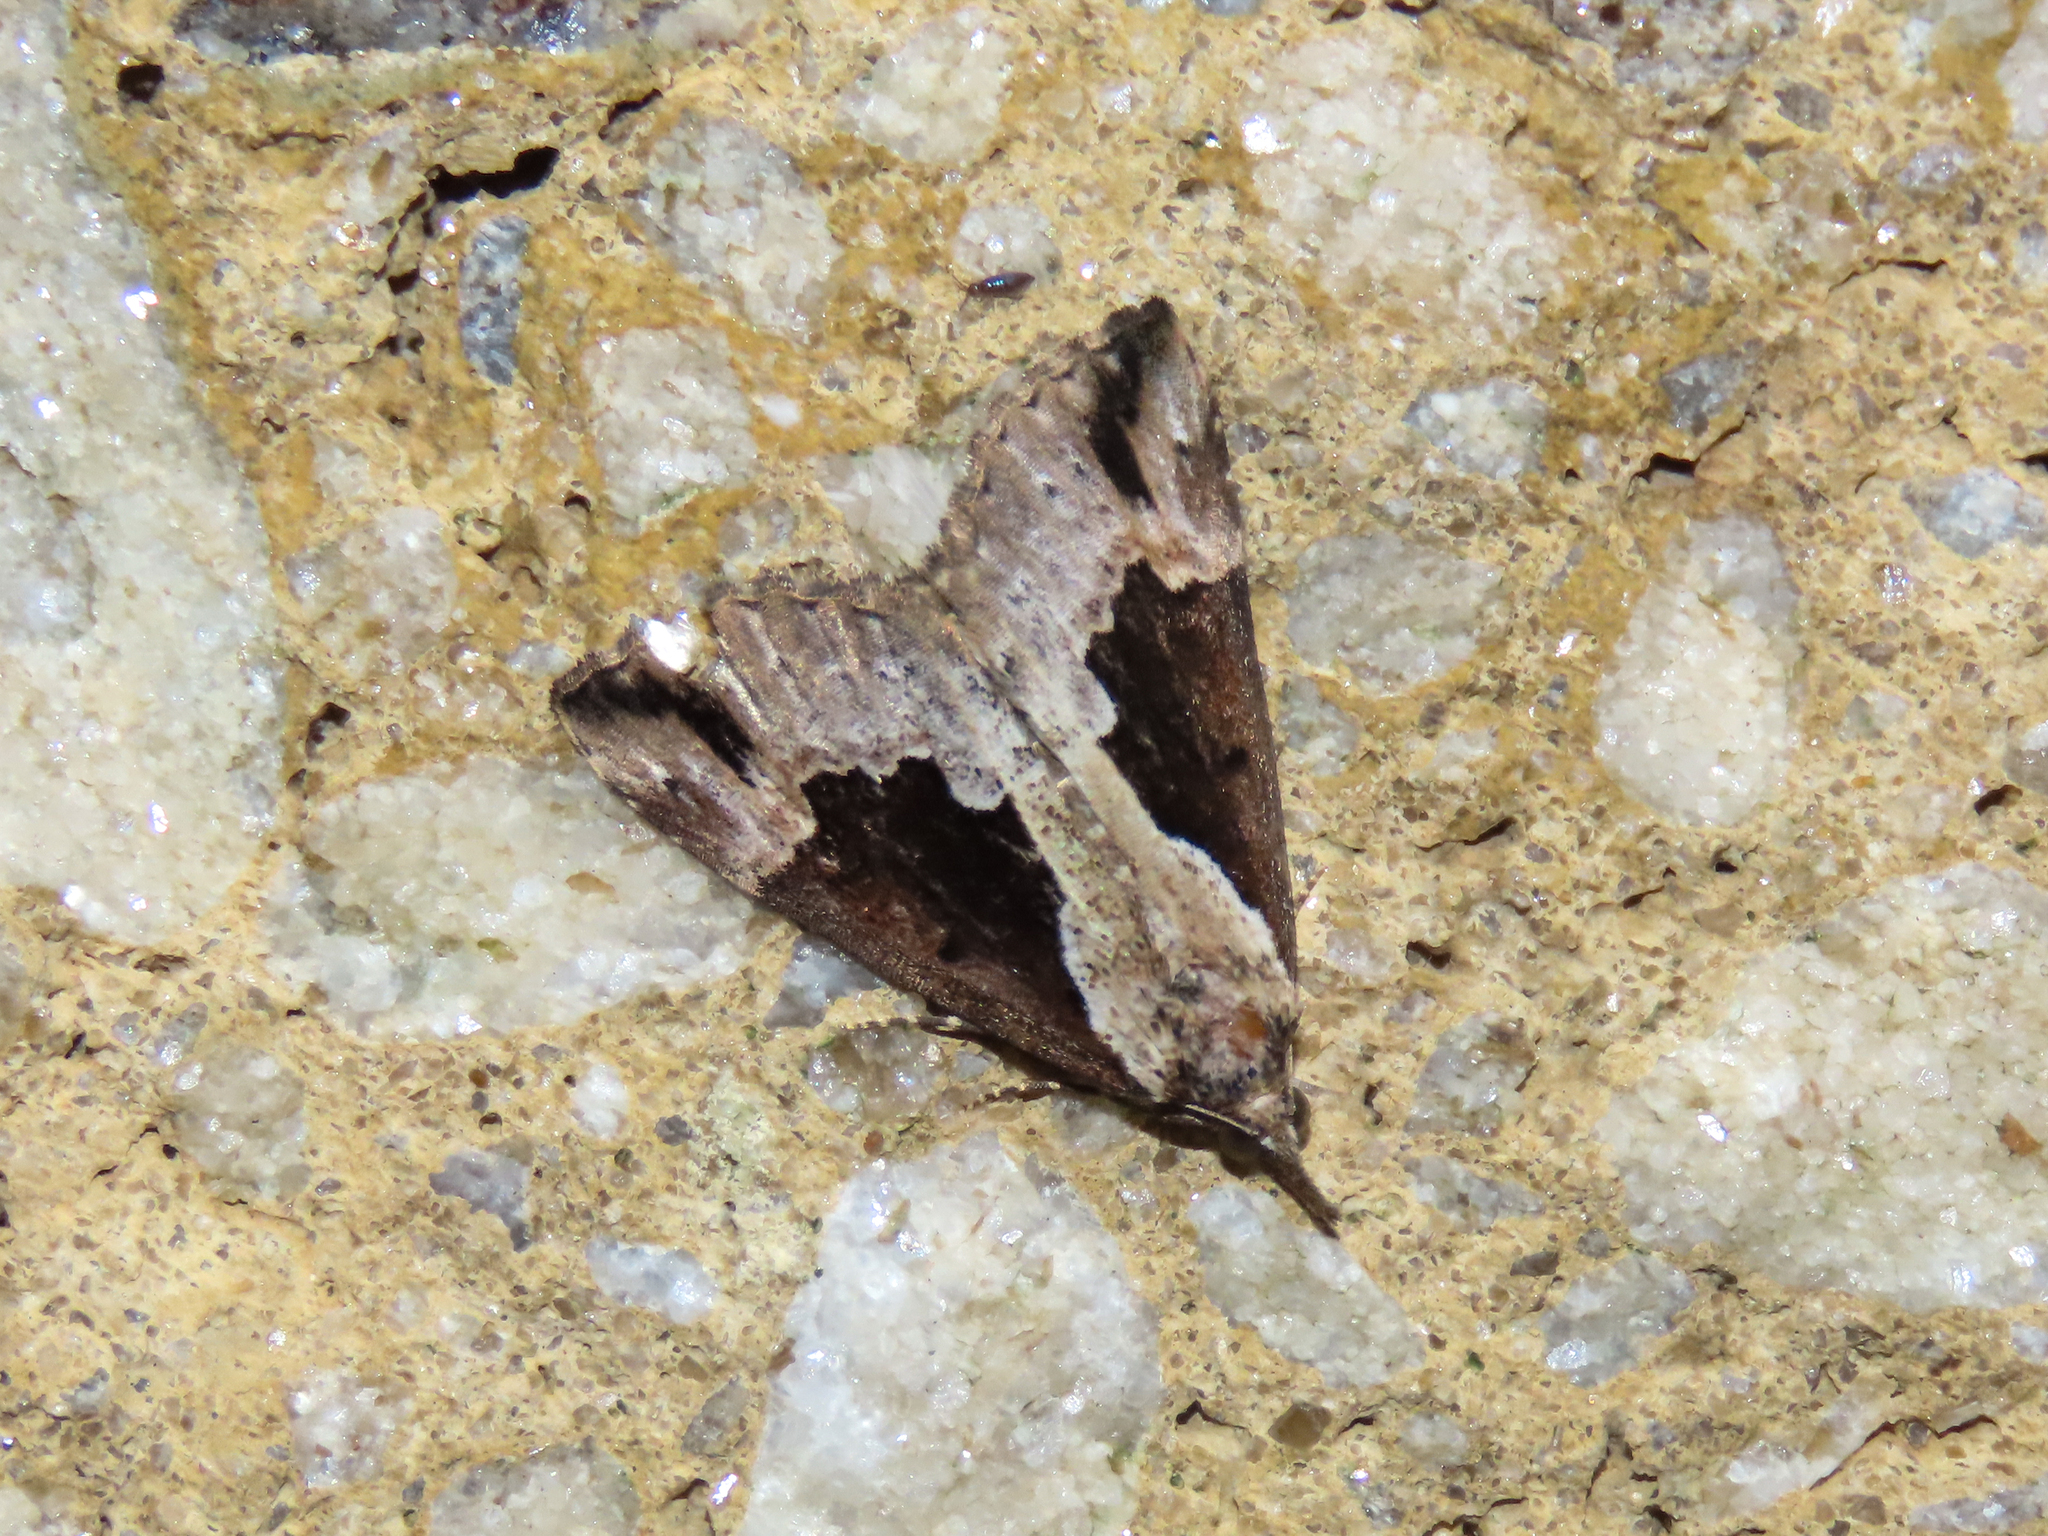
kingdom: Animalia
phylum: Arthropoda
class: Insecta
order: Lepidoptera
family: Erebidae
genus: Hypena
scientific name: Hypena baltimoralis
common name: Baltimore snout
